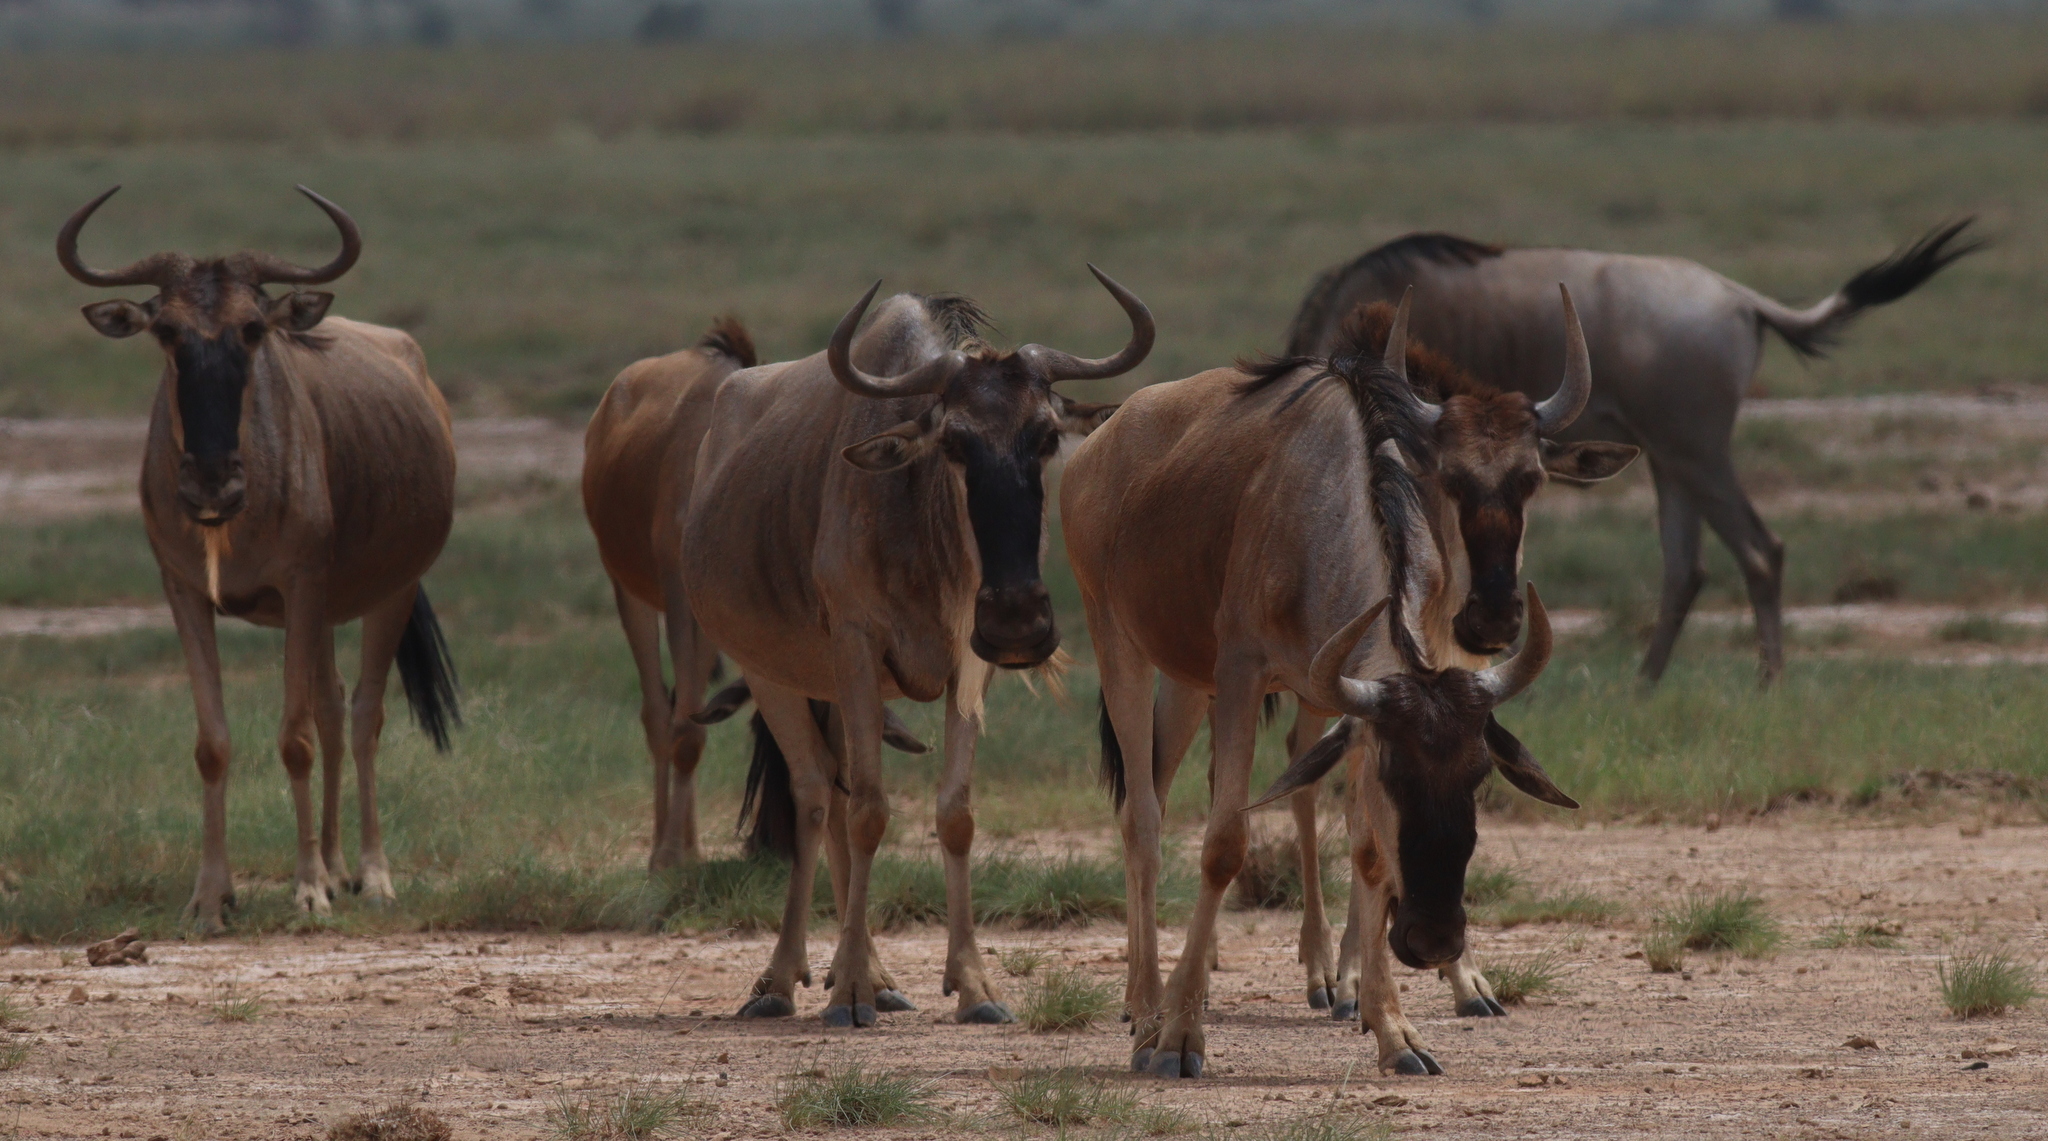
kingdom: Animalia
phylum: Chordata
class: Mammalia
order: Artiodactyla
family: Bovidae
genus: Connochaetes
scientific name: Connochaetes taurinus
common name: Blue wildebeest
